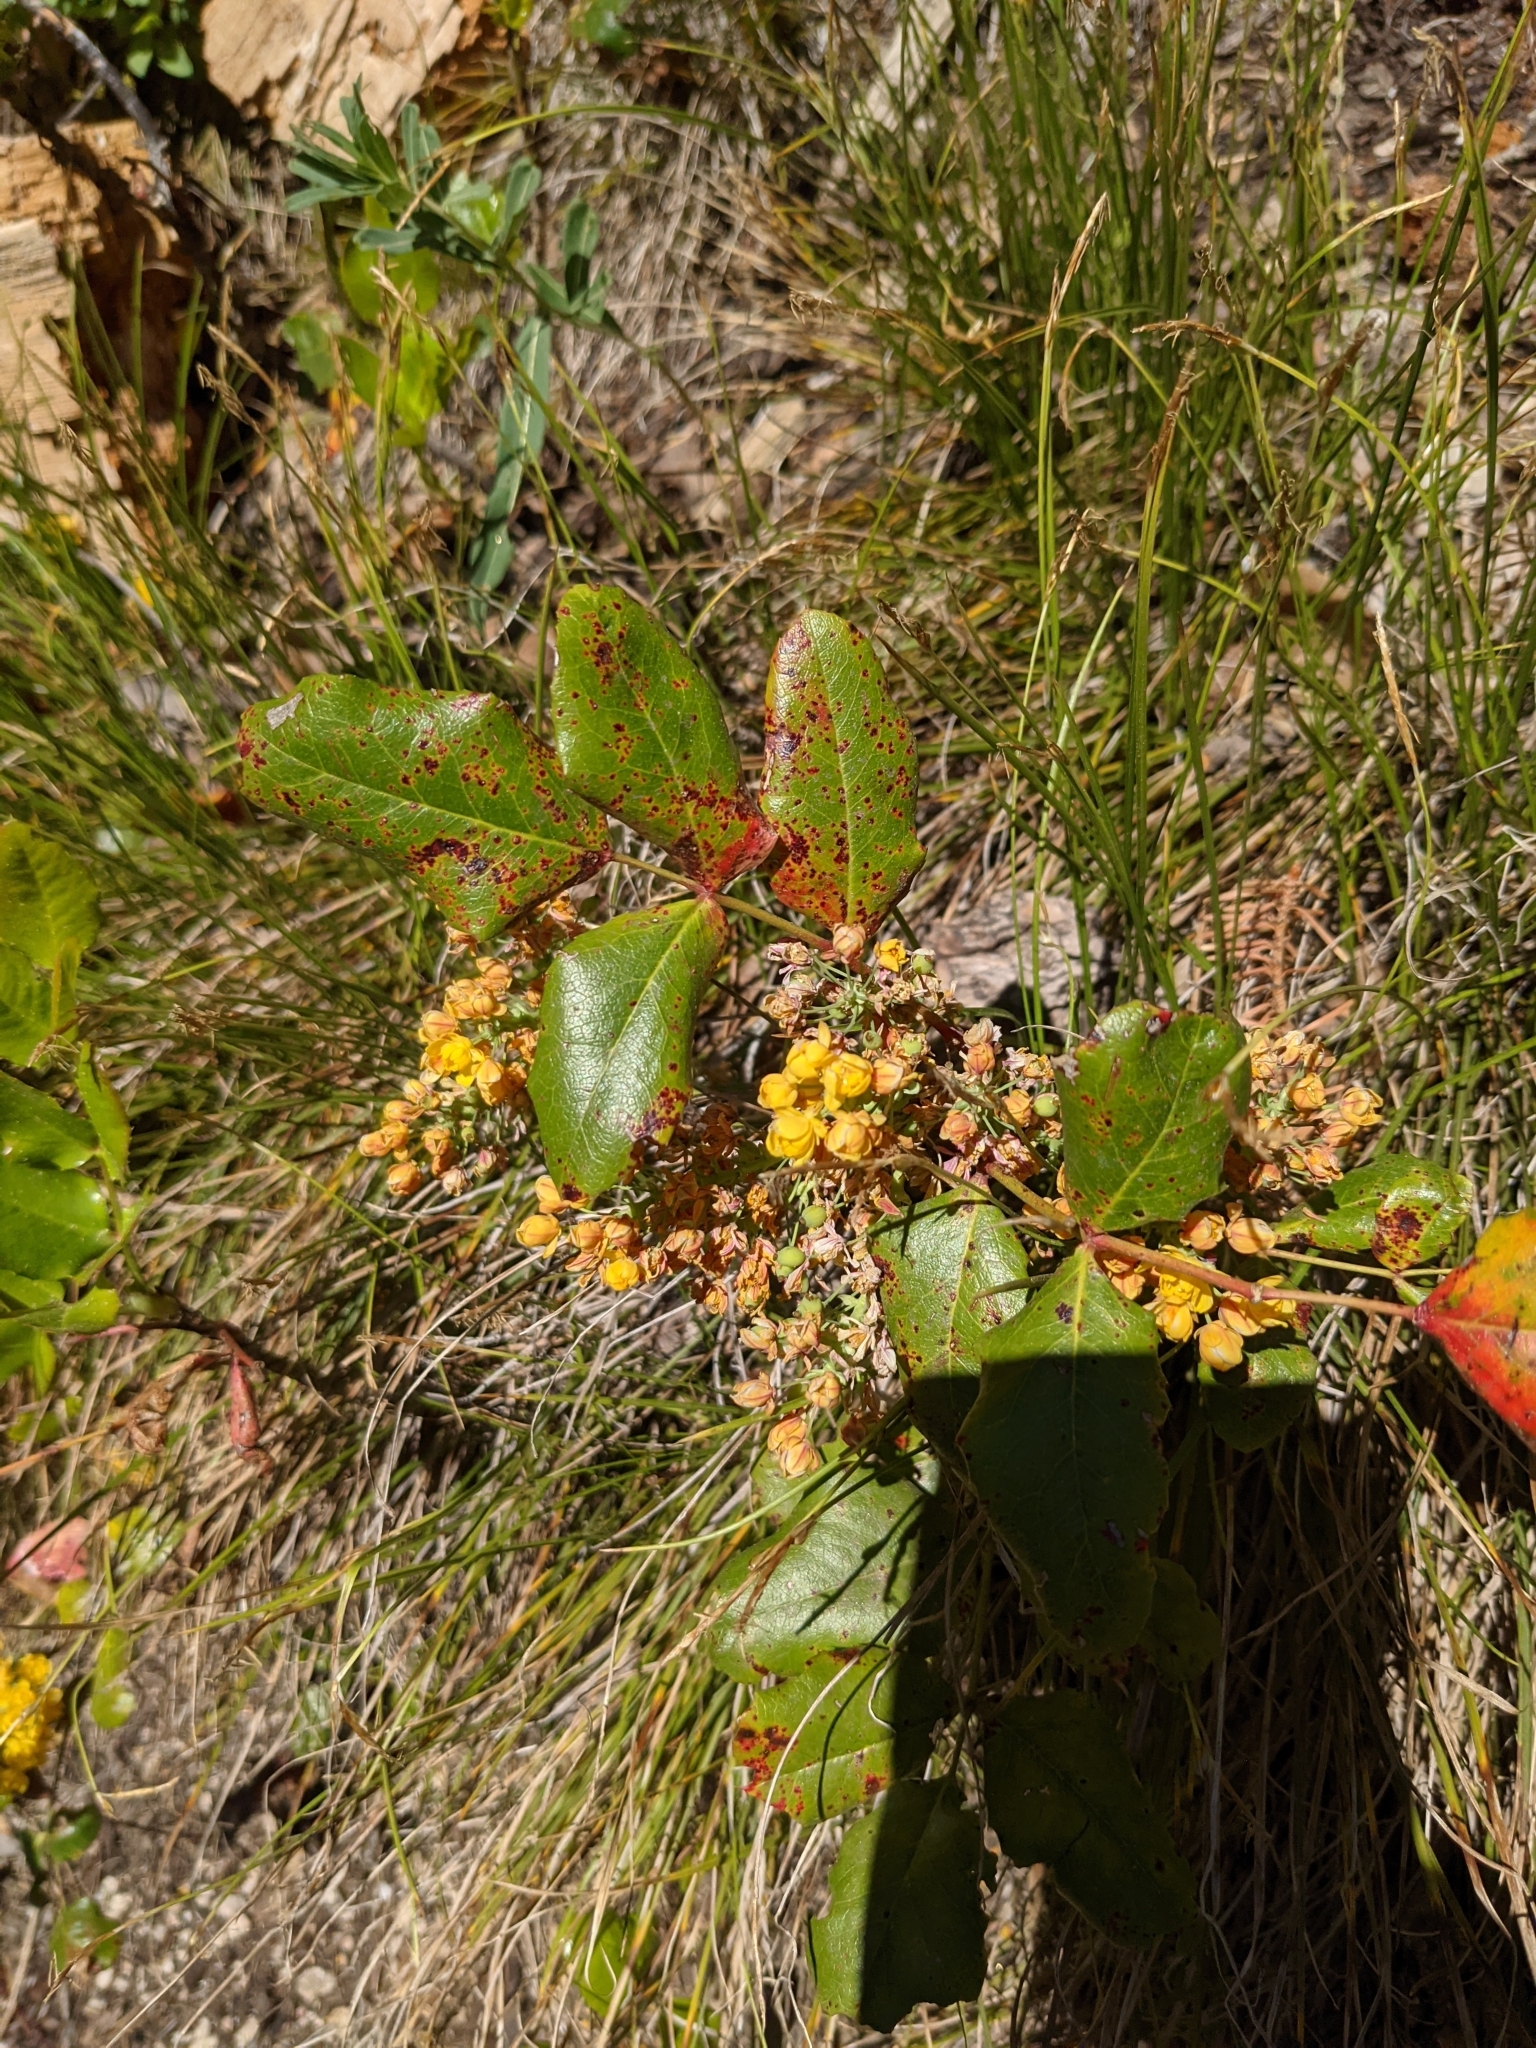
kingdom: Plantae
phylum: Tracheophyta
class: Magnoliopsida
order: Ranunculales
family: Berberidaceae
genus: Mahonia
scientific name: Mahonia repens
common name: Creeping oregon-grape
